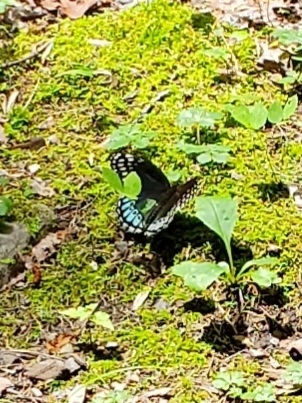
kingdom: Animalia
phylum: Arthropoda
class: Insecta
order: Lepidoptera
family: Nymphalidae
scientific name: Nymphalidae
